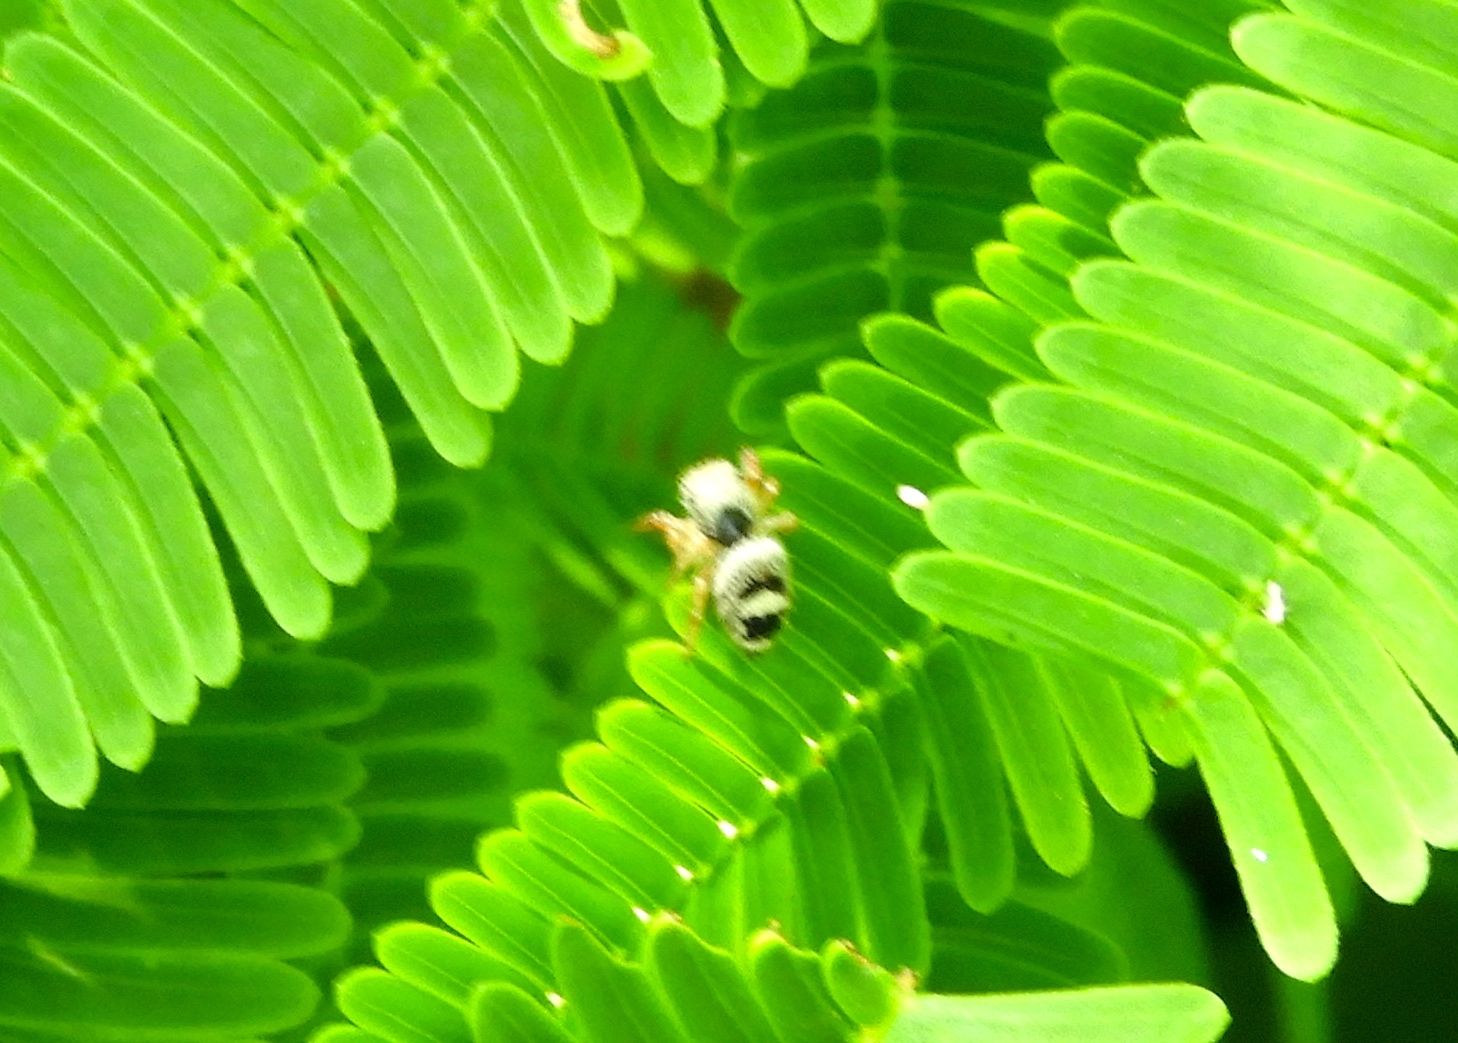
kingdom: Animalia
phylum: Arthropoda
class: Arachnida
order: Araneae
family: Salticidae
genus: Phidippus
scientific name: Phidippus pacosauritus
